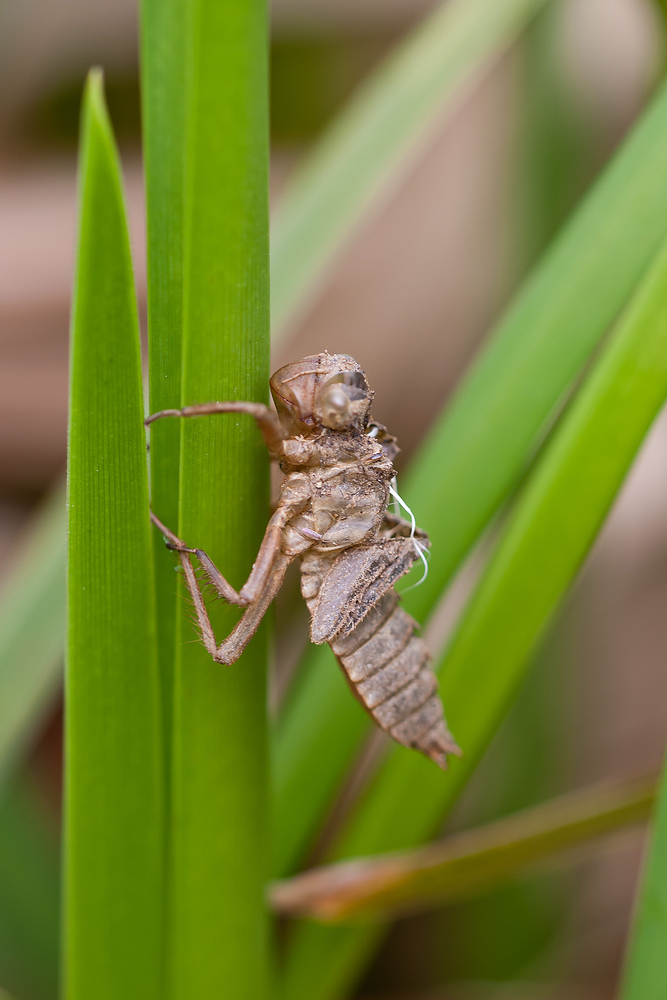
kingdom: Animalia
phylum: Arthropoda
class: Insecta
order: Odonata
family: Libellulidae
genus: Libellula
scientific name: Libellula quadrimaculata
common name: Four-spotted chaser
